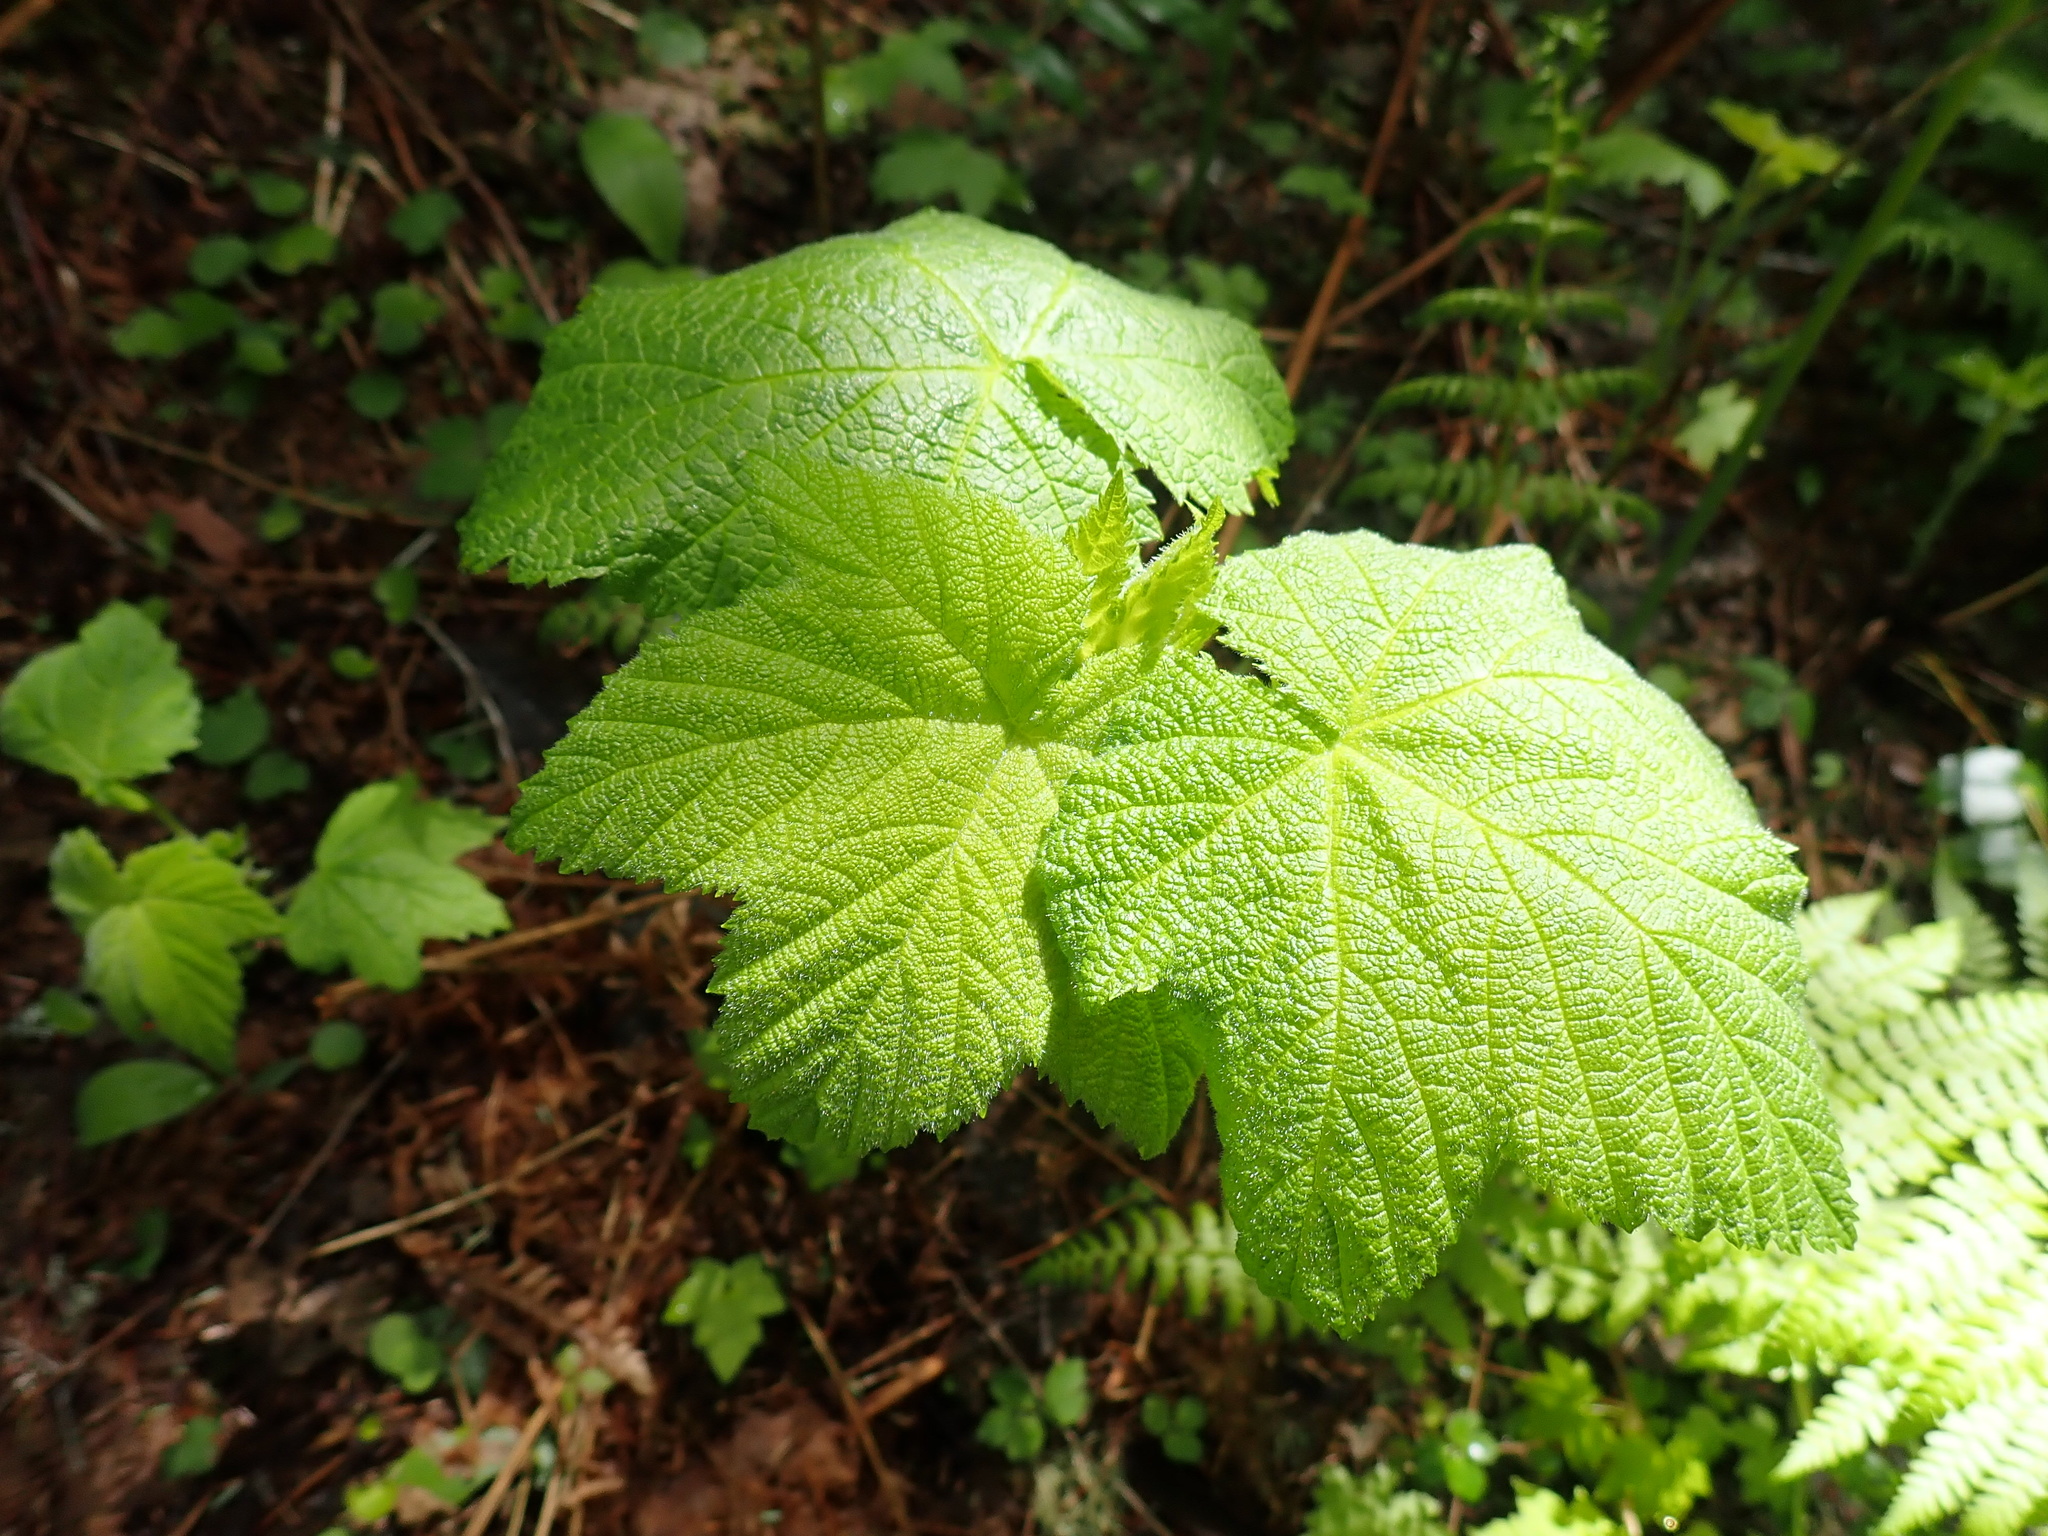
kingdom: Plantae
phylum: Tracheophyta
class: Magnoliopsida
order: Rosales
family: Rosaceae
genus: Rubus
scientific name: Rubus parviflorus
